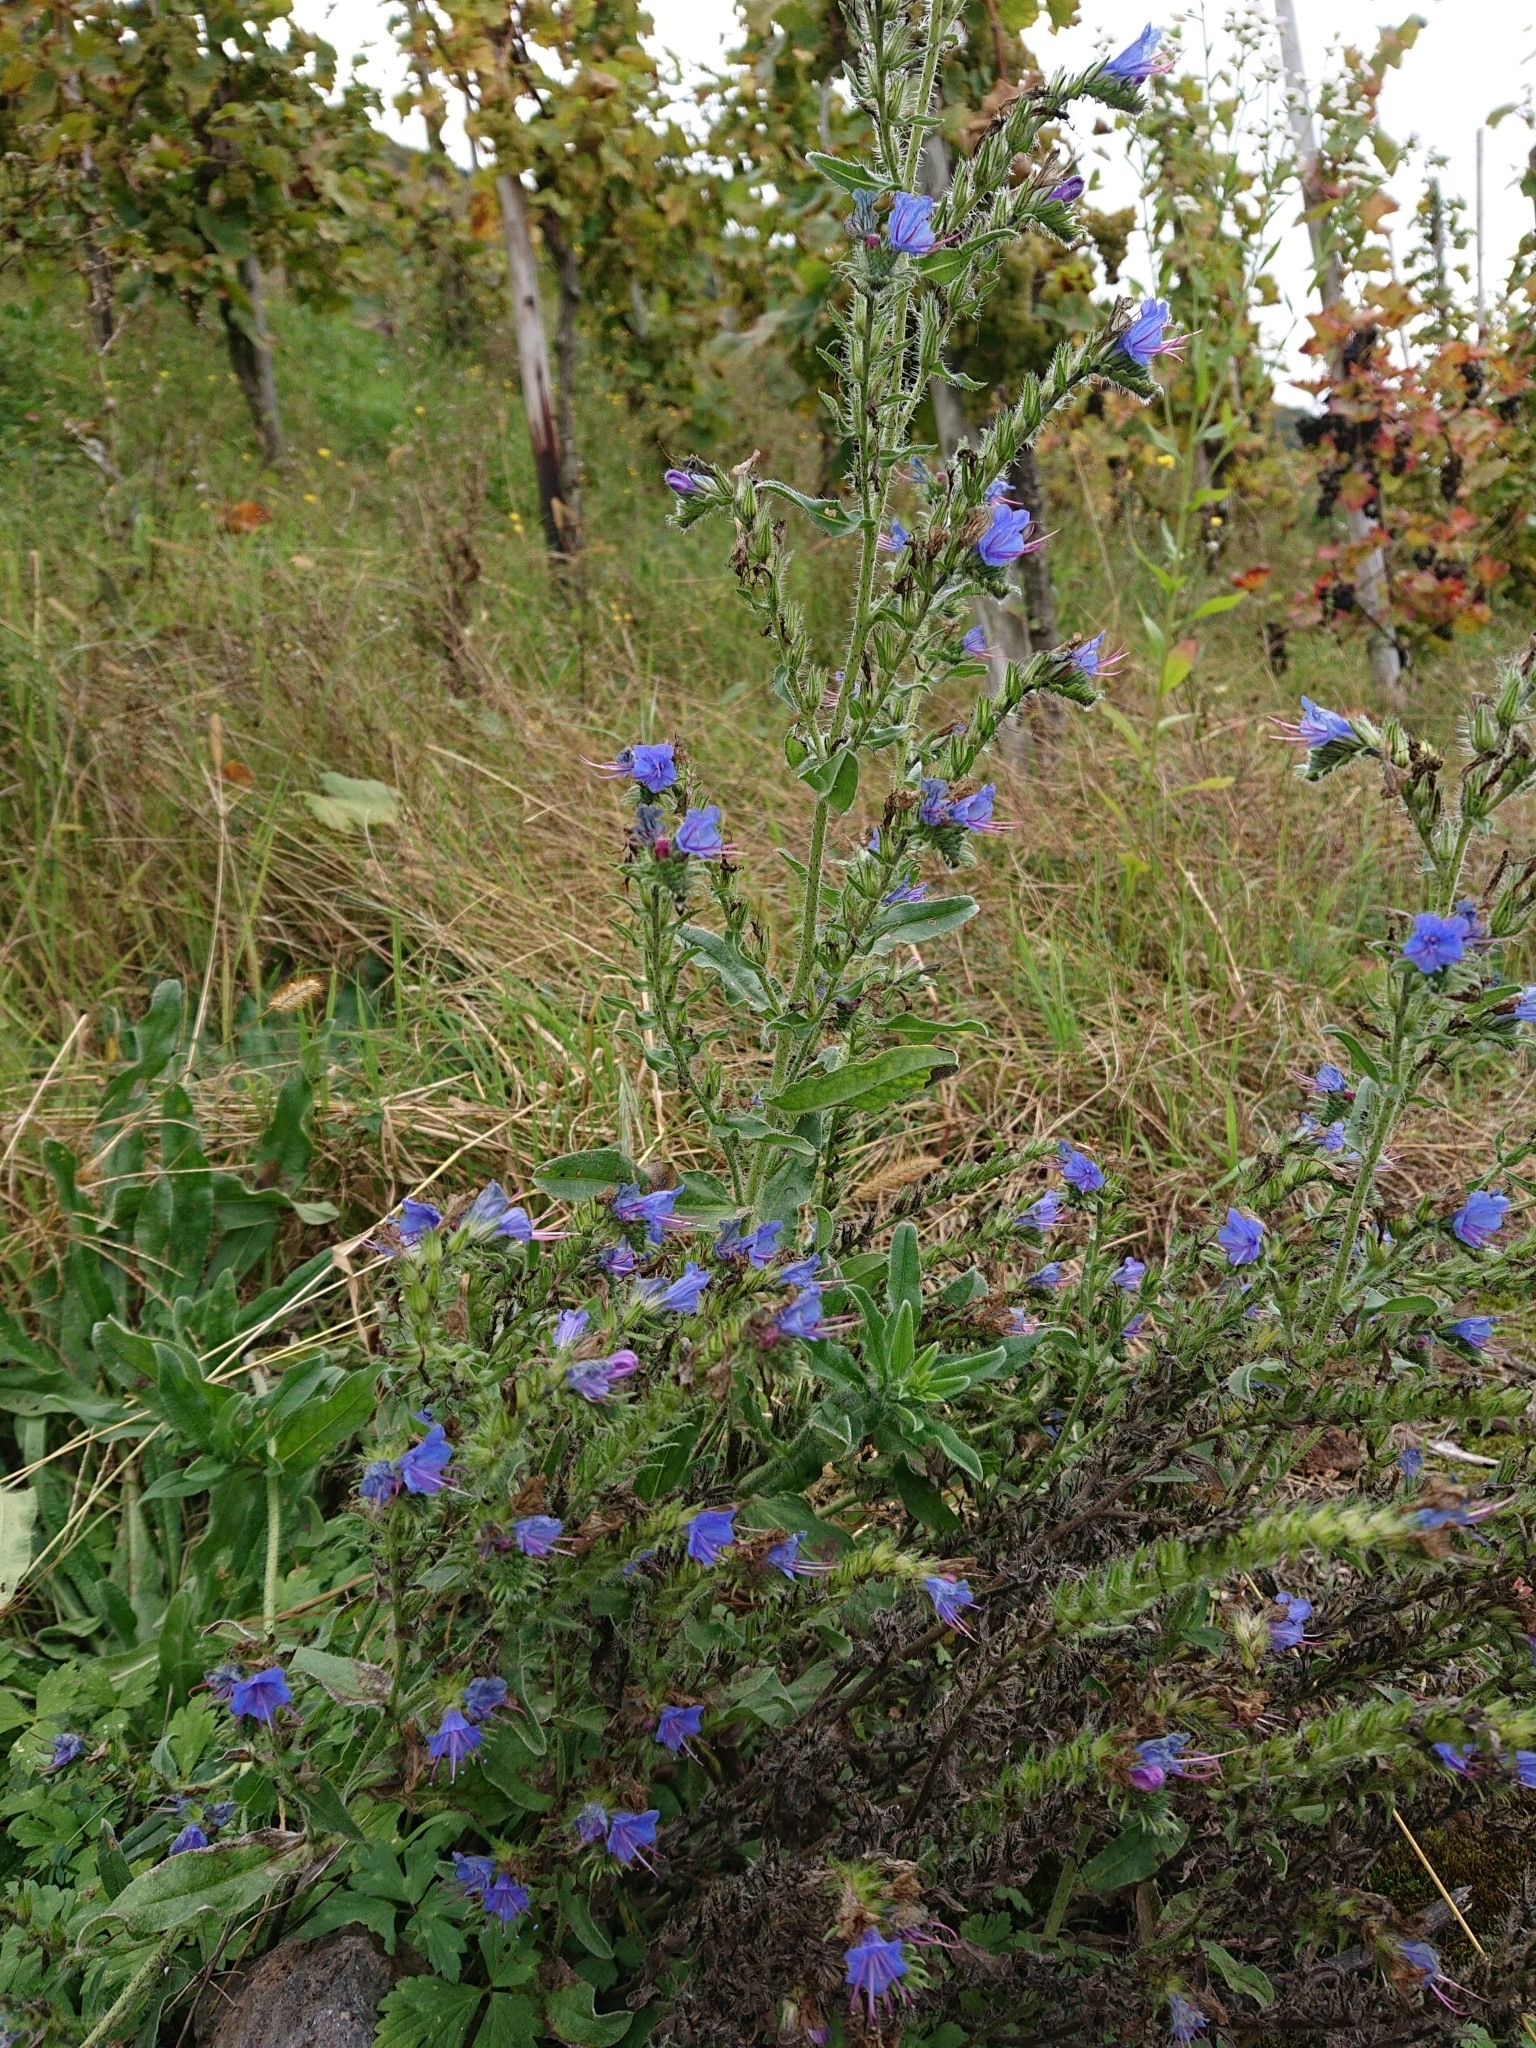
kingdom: Plantae
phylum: Tracheophyta
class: Magnoliopsida
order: Boraginales
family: Boraginaceae
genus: Echium
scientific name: Echium vulgare
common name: Common viper's bugloss
